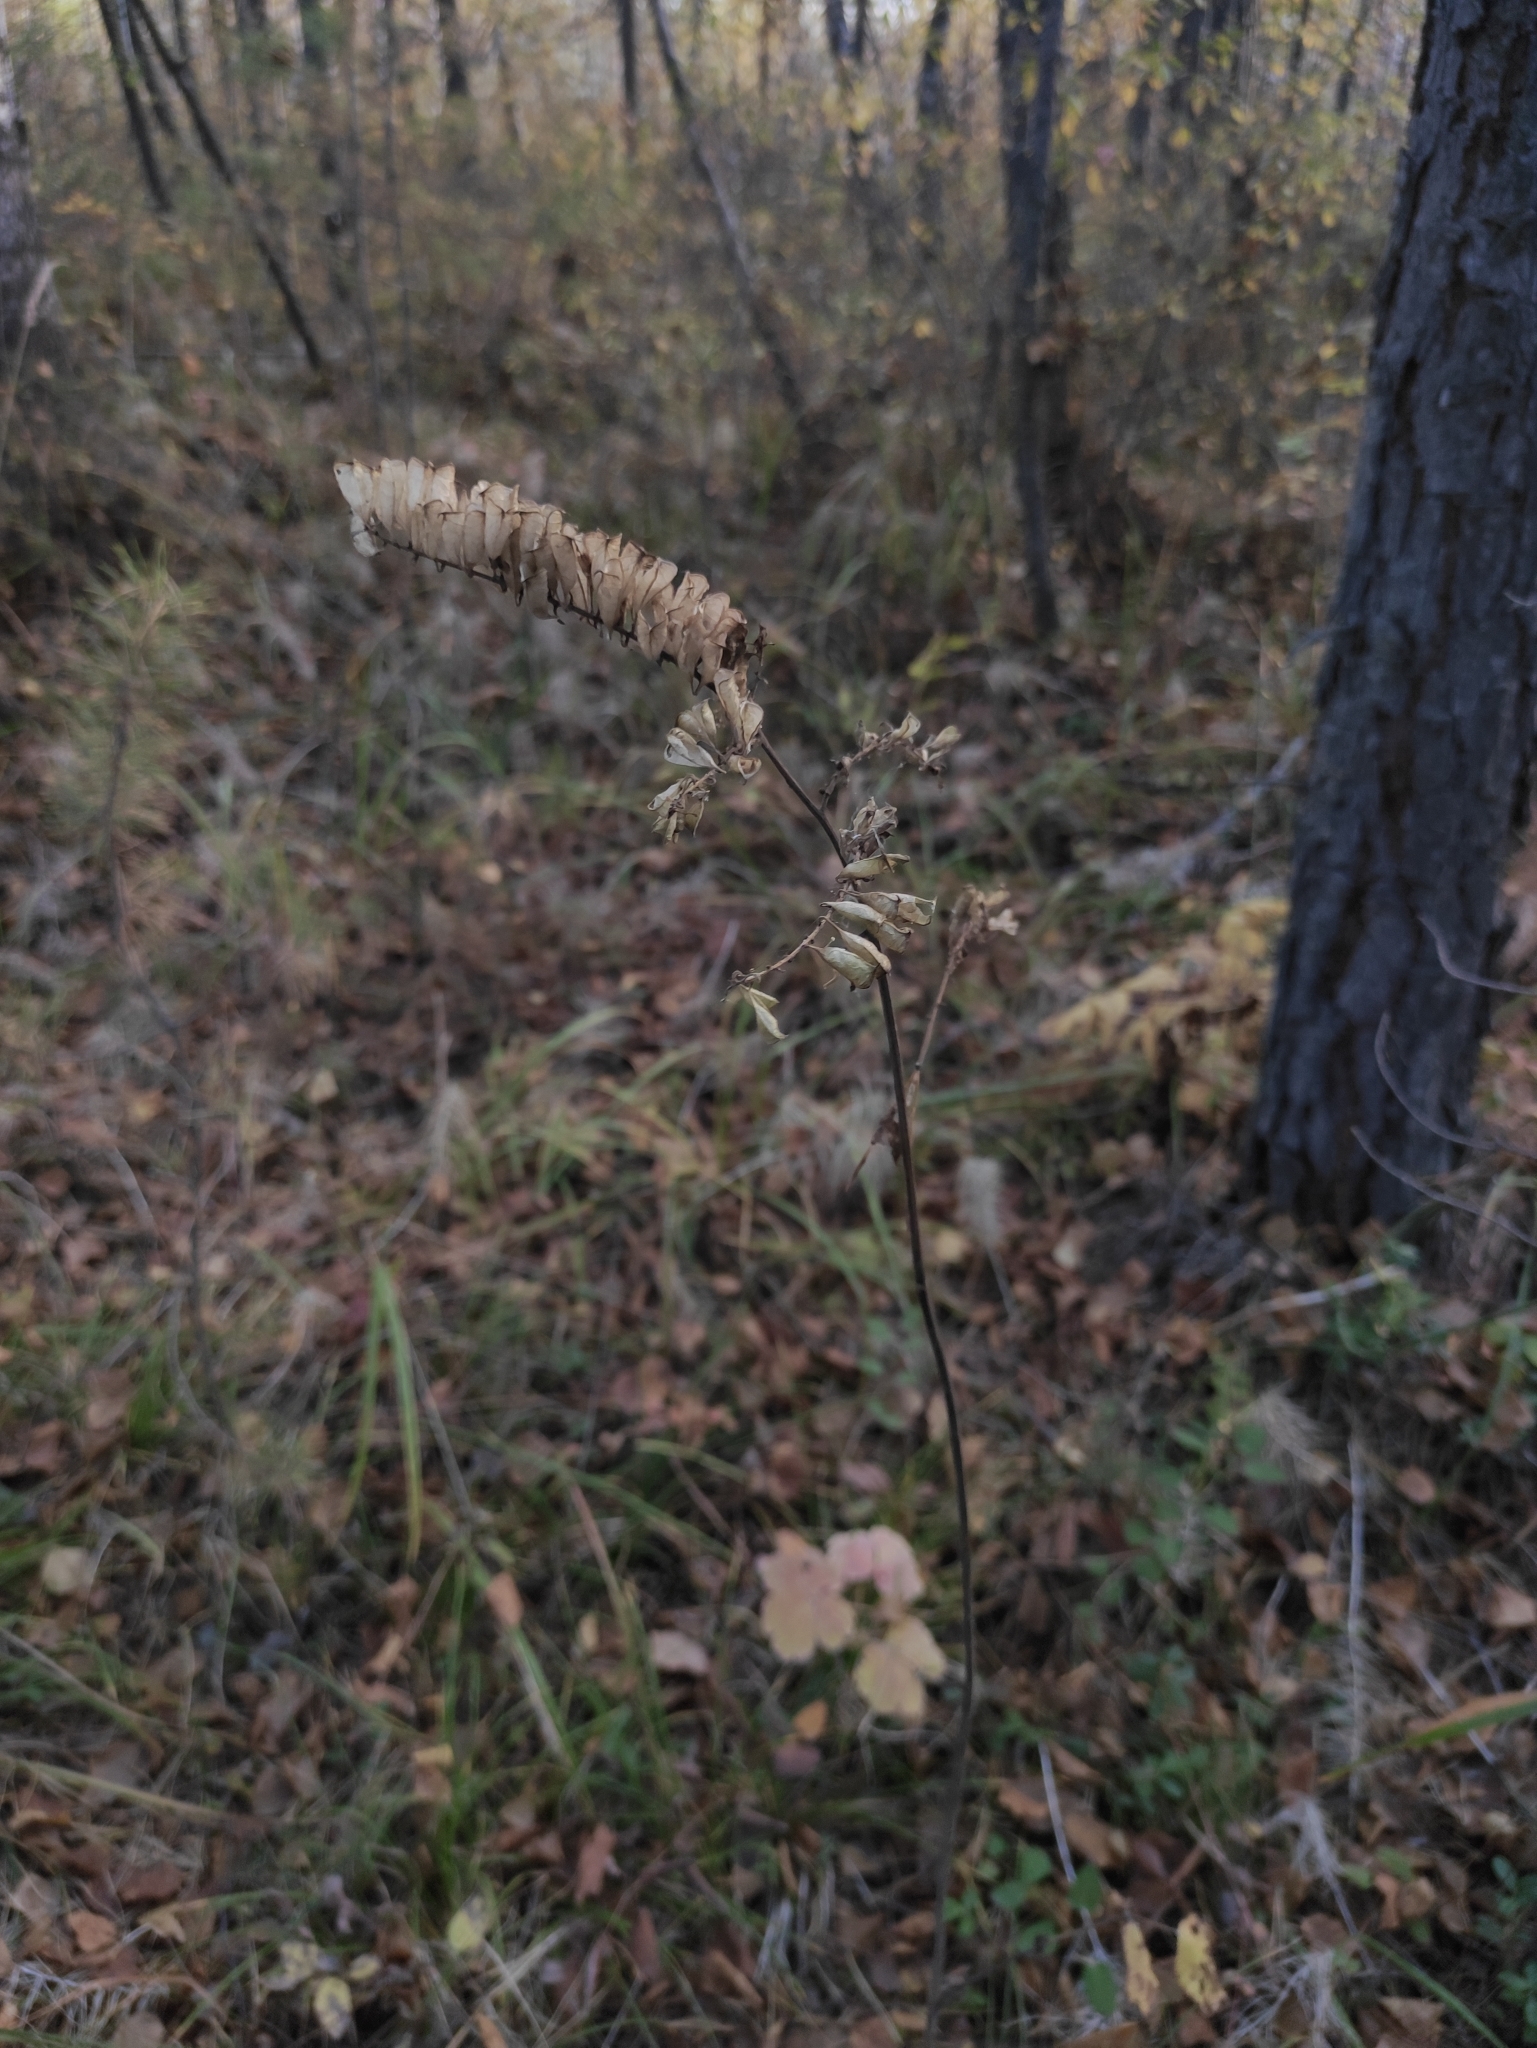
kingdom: Plantae
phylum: Tracheophyta
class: Magnoliopsida
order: Ranunculales
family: Ranunculaceae
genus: Actaea
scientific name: Actaea cimicifuga
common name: Chinese cimicifuga
